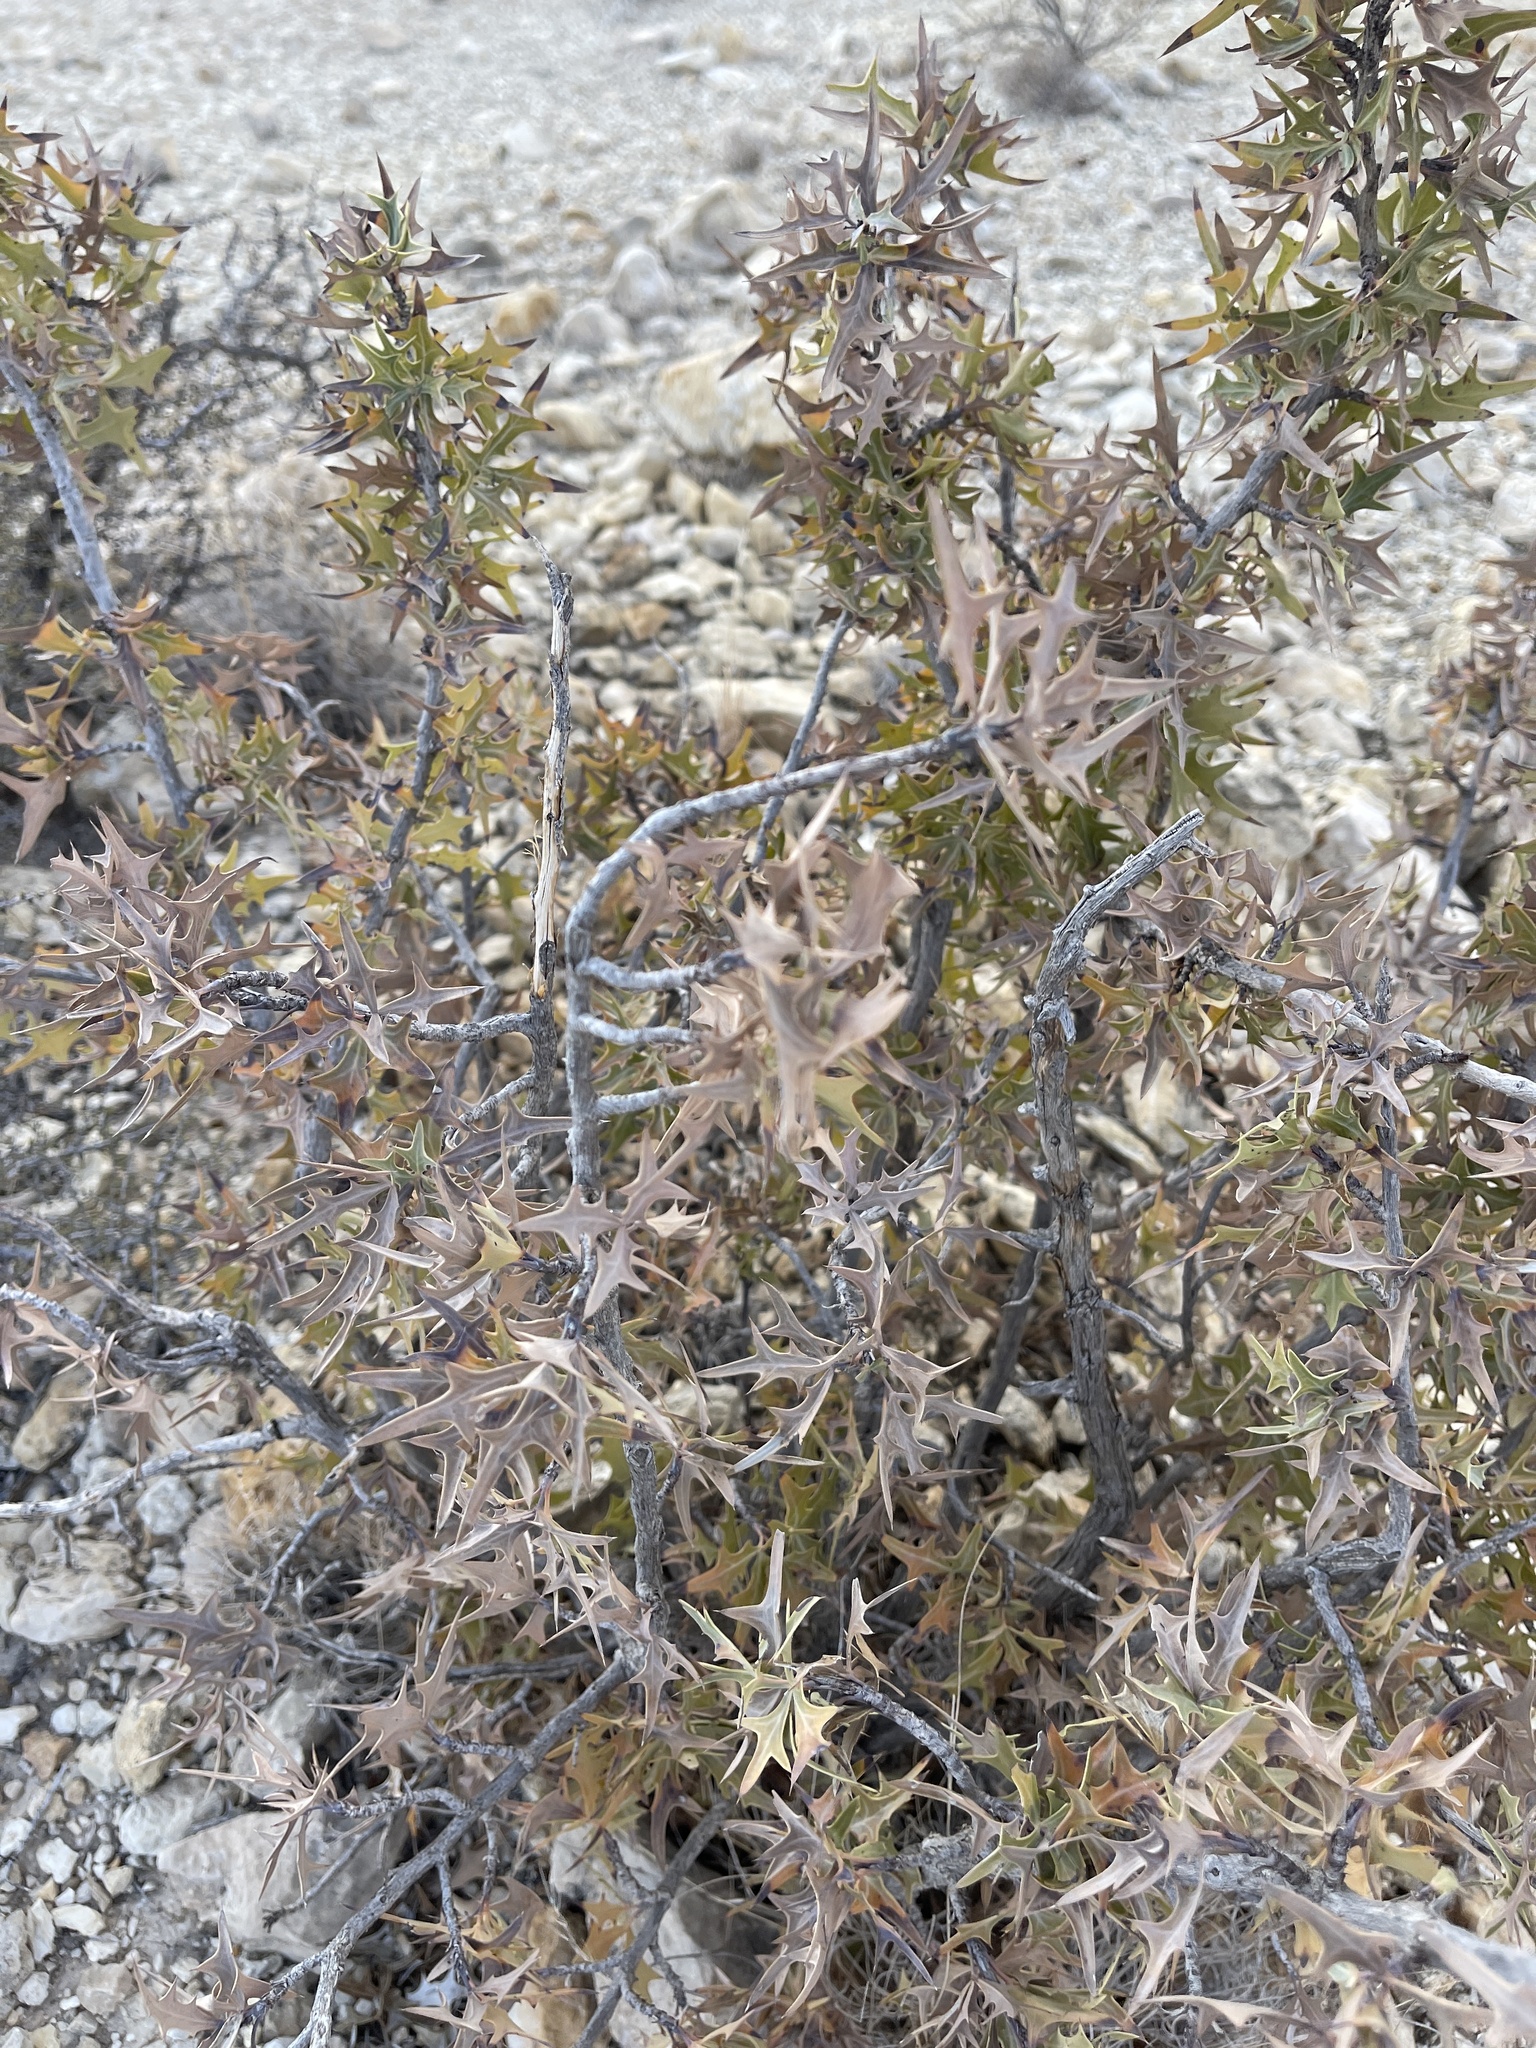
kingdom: Plantae
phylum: Tracheophyta
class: Magnoliopsida
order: Ranunculales
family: Berberidaceae
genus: Alloberberis
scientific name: Alloberberis trifoliolata
